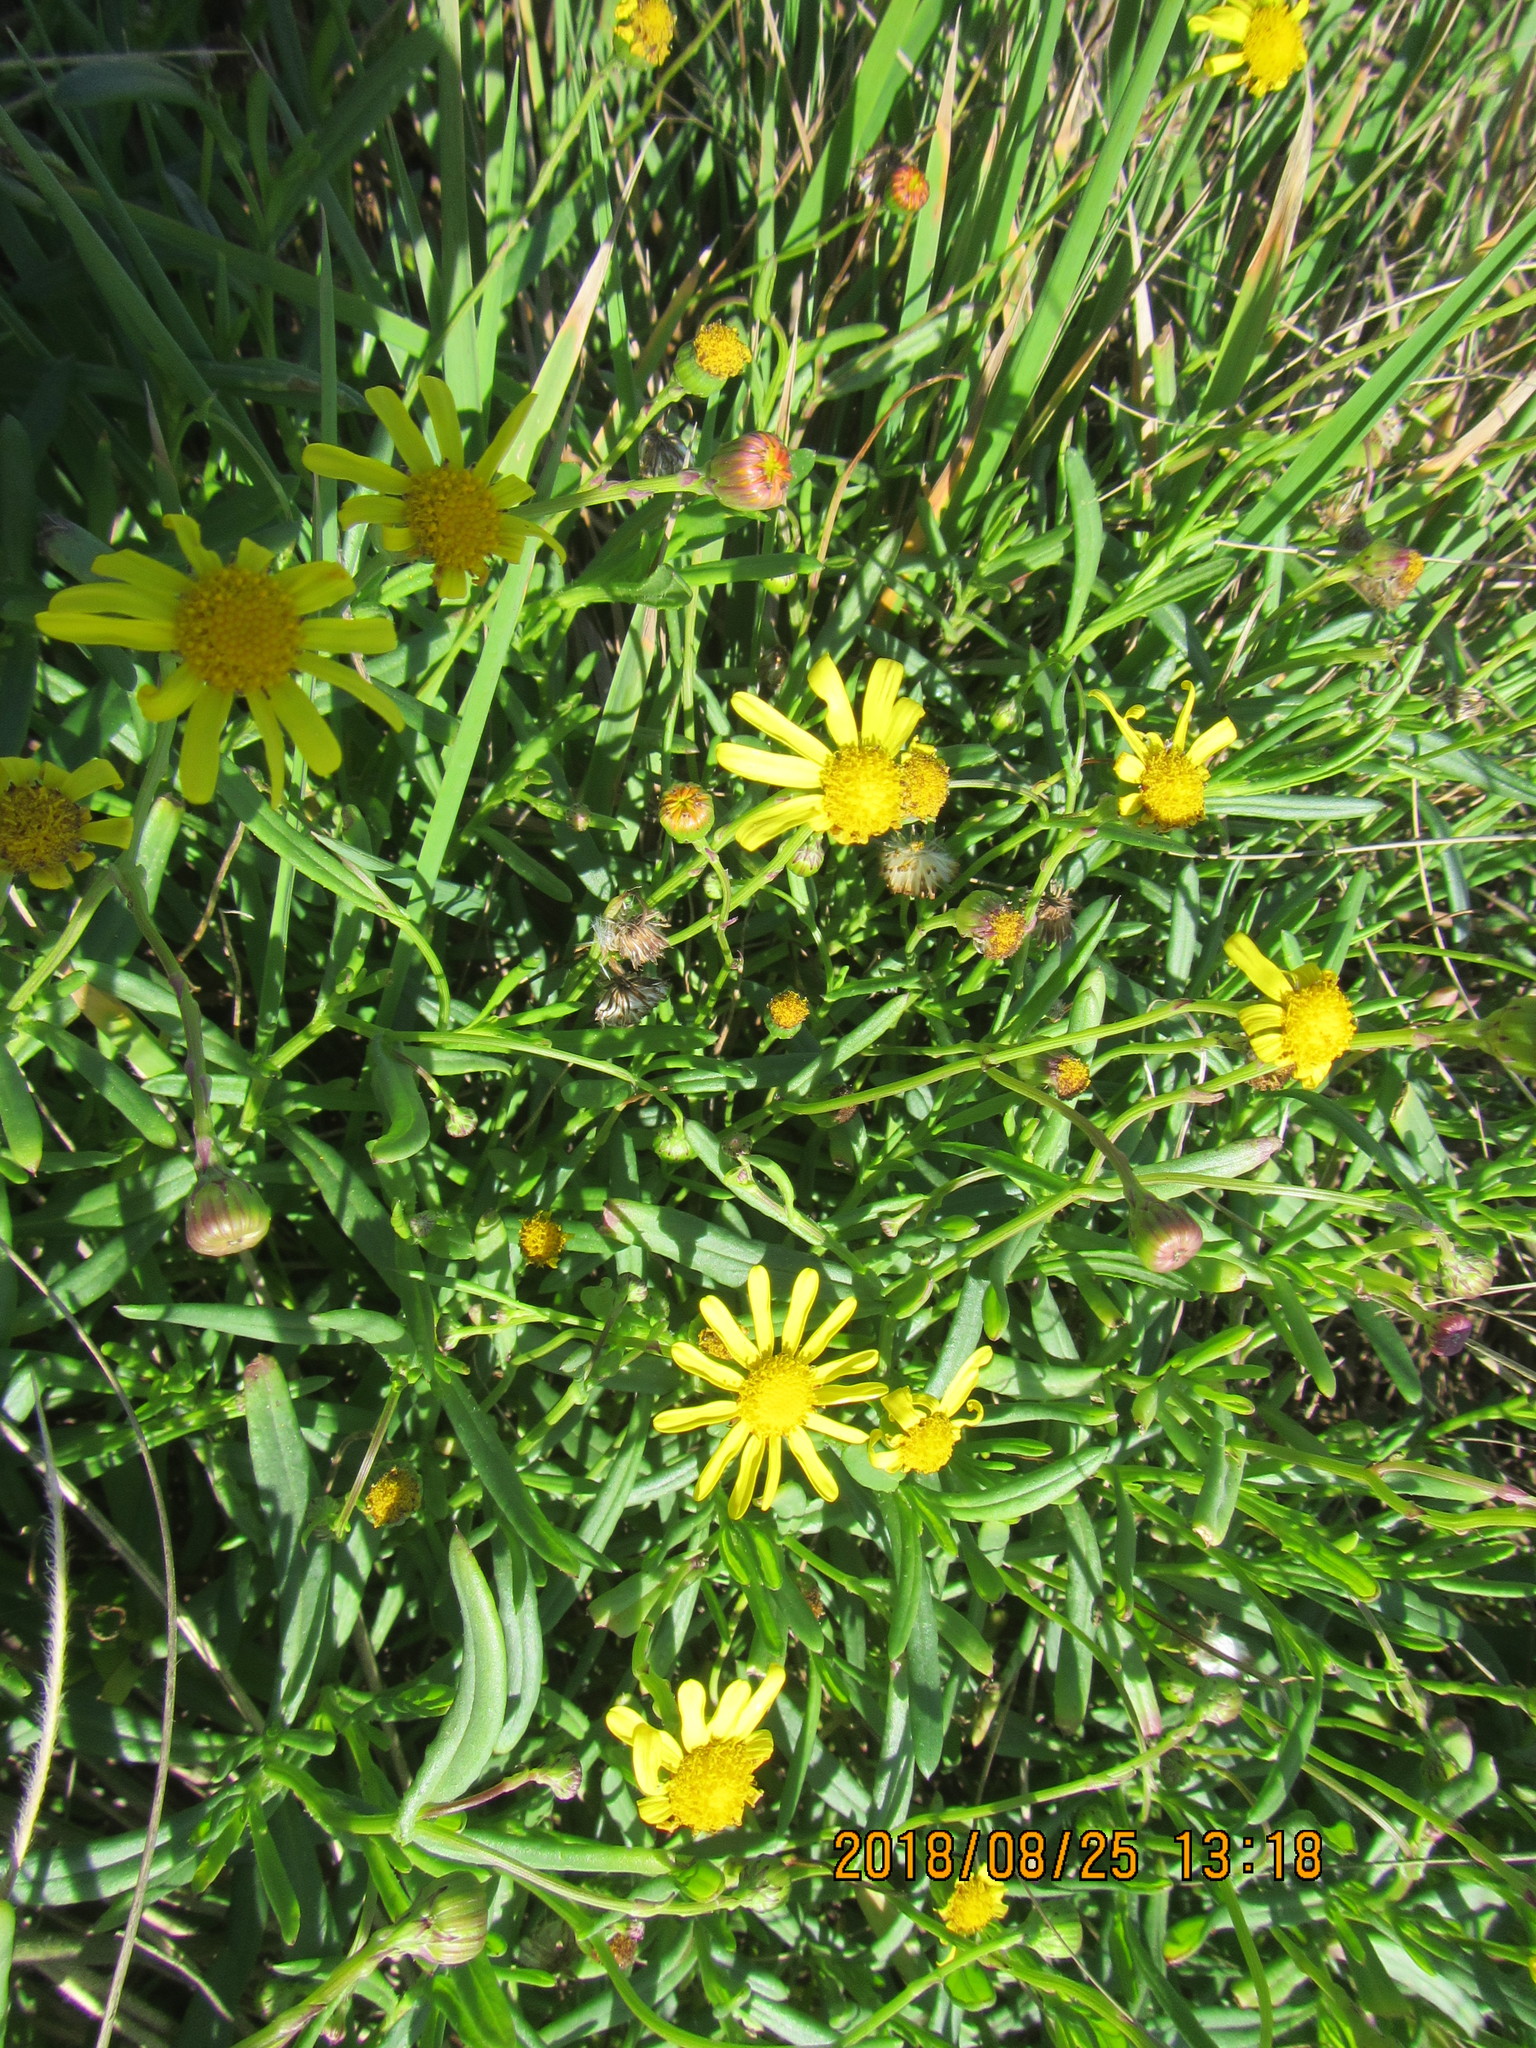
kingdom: Plantae
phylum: Tracheophyta
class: Magnoliopsida
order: Asterales
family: Asteraceae
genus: Senecio
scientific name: Senecio skirrhodon
